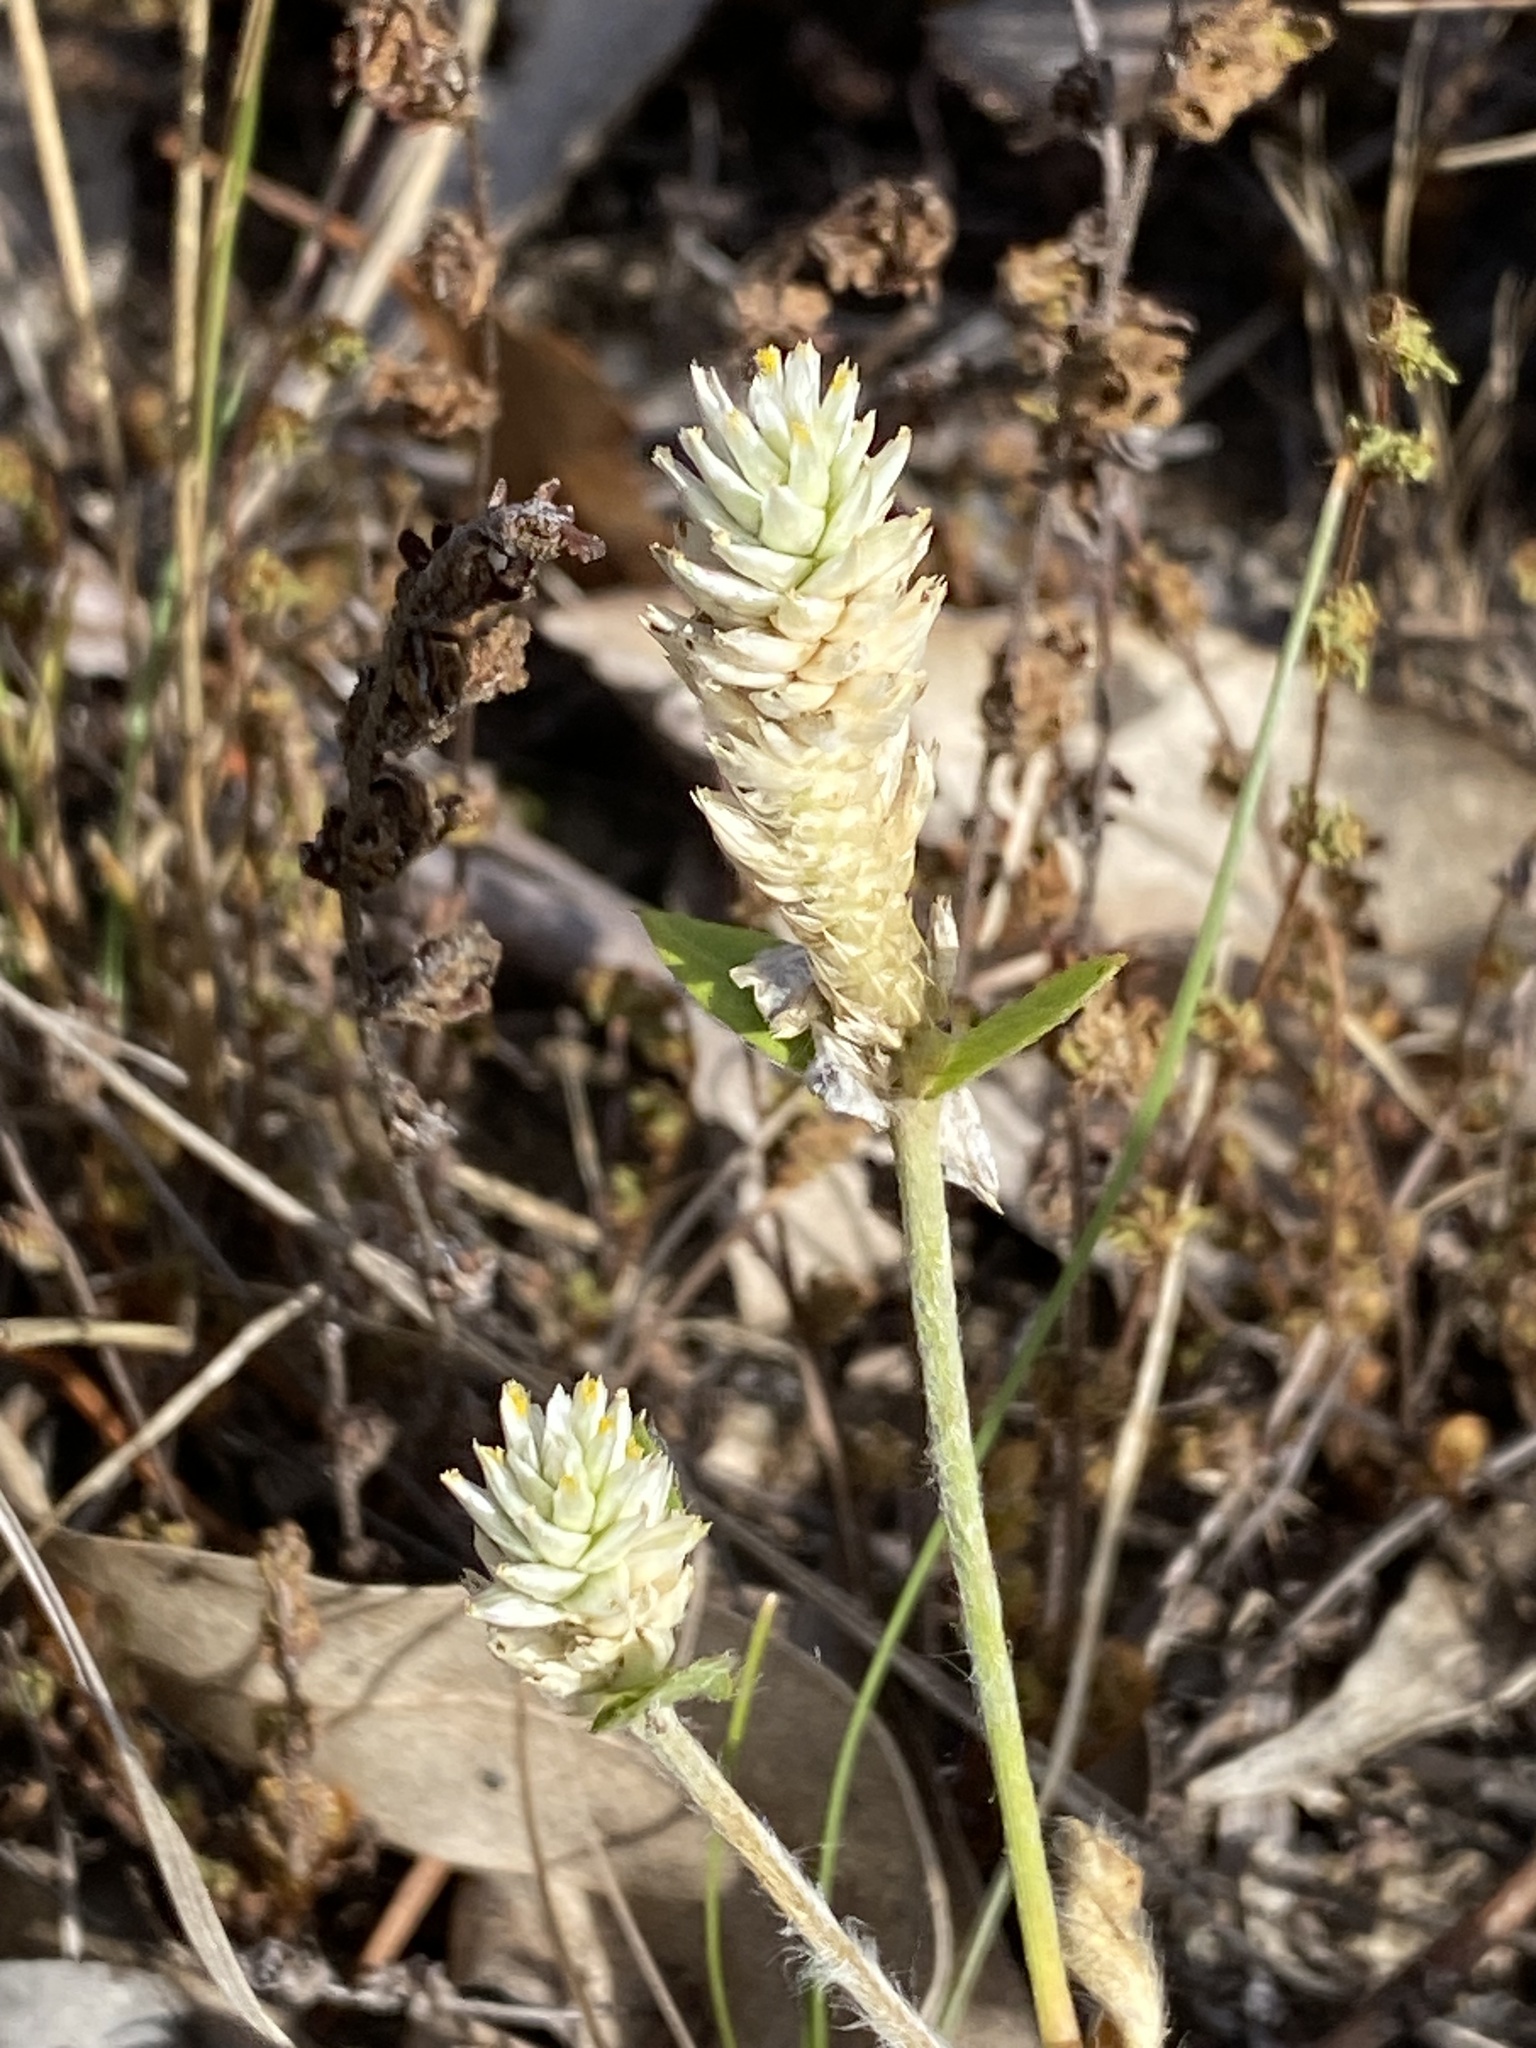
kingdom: Plantae
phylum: Tracheophyta
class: Magnoliopsida
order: Caryophyllales
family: Amaranthaceae
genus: Gomphrena
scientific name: Gomphrena celosioides
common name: Gomphrena-weed
